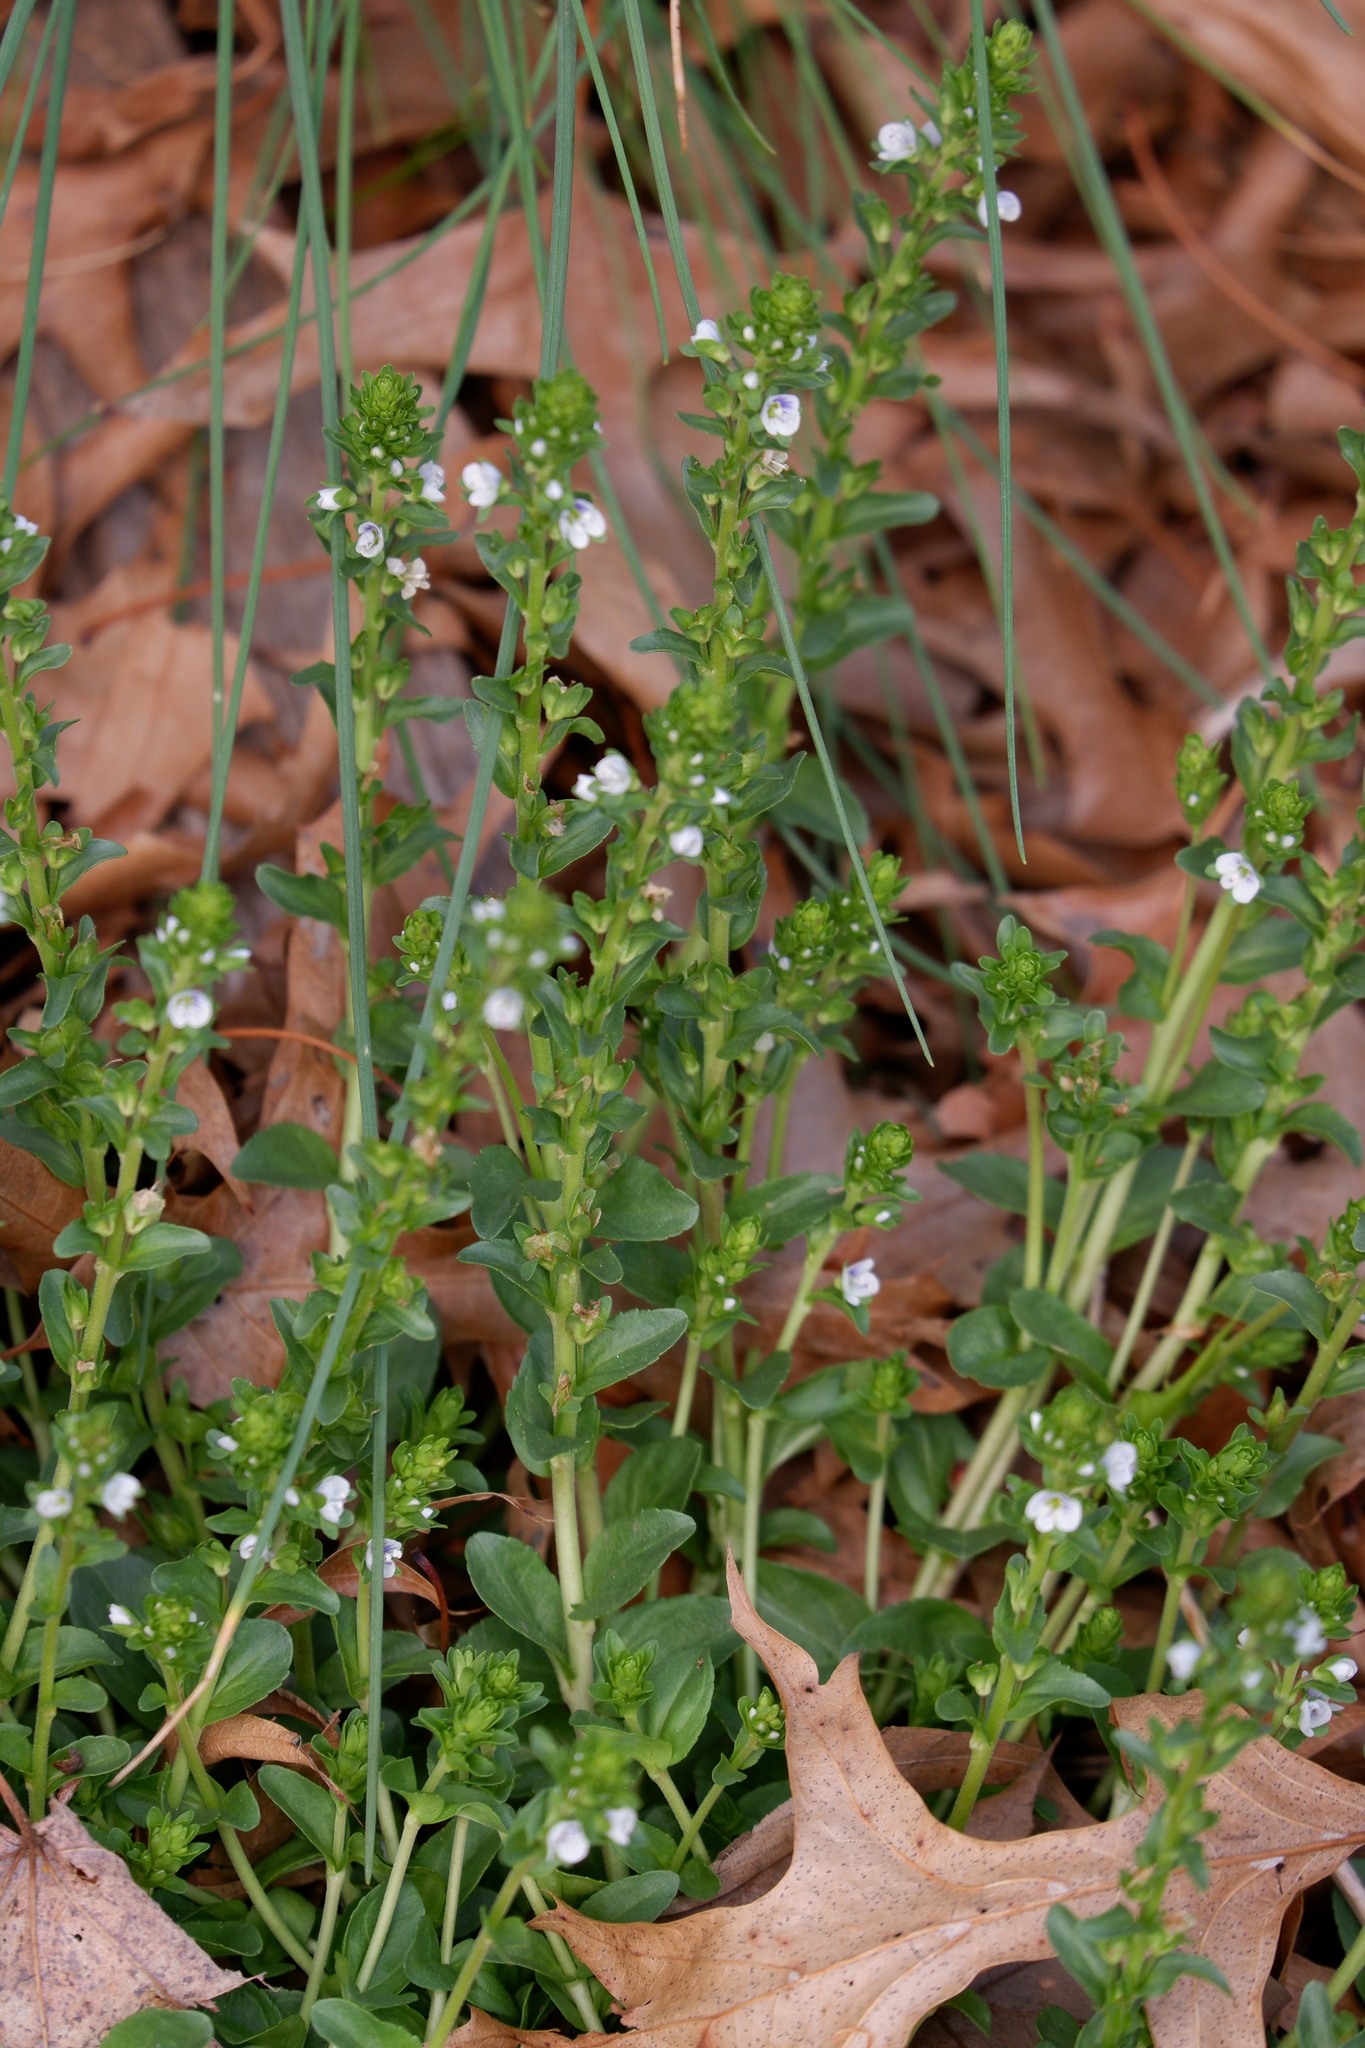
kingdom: Plantae
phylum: Tracheophyta
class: Magnoliopsida
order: Lamiales
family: Plantaginaceae
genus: Veronica
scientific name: Veronica serpyllifolia
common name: Thyme-leaved speedwell
